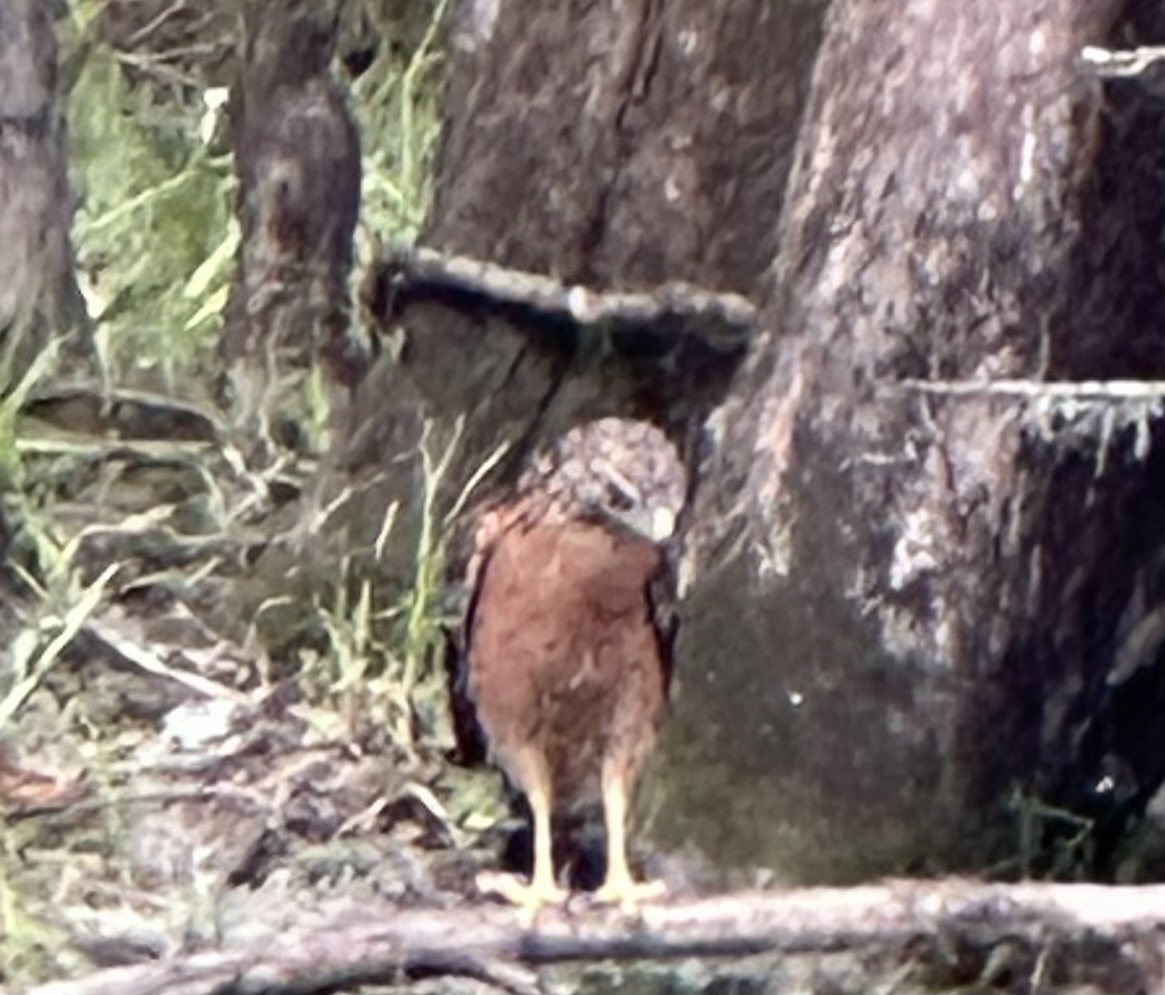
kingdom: Animalia
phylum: Chordata
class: Aves
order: Accipitriformes
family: Accipitridae
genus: Buteo
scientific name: Buteo lineatus
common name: Red-shouldered hawk
